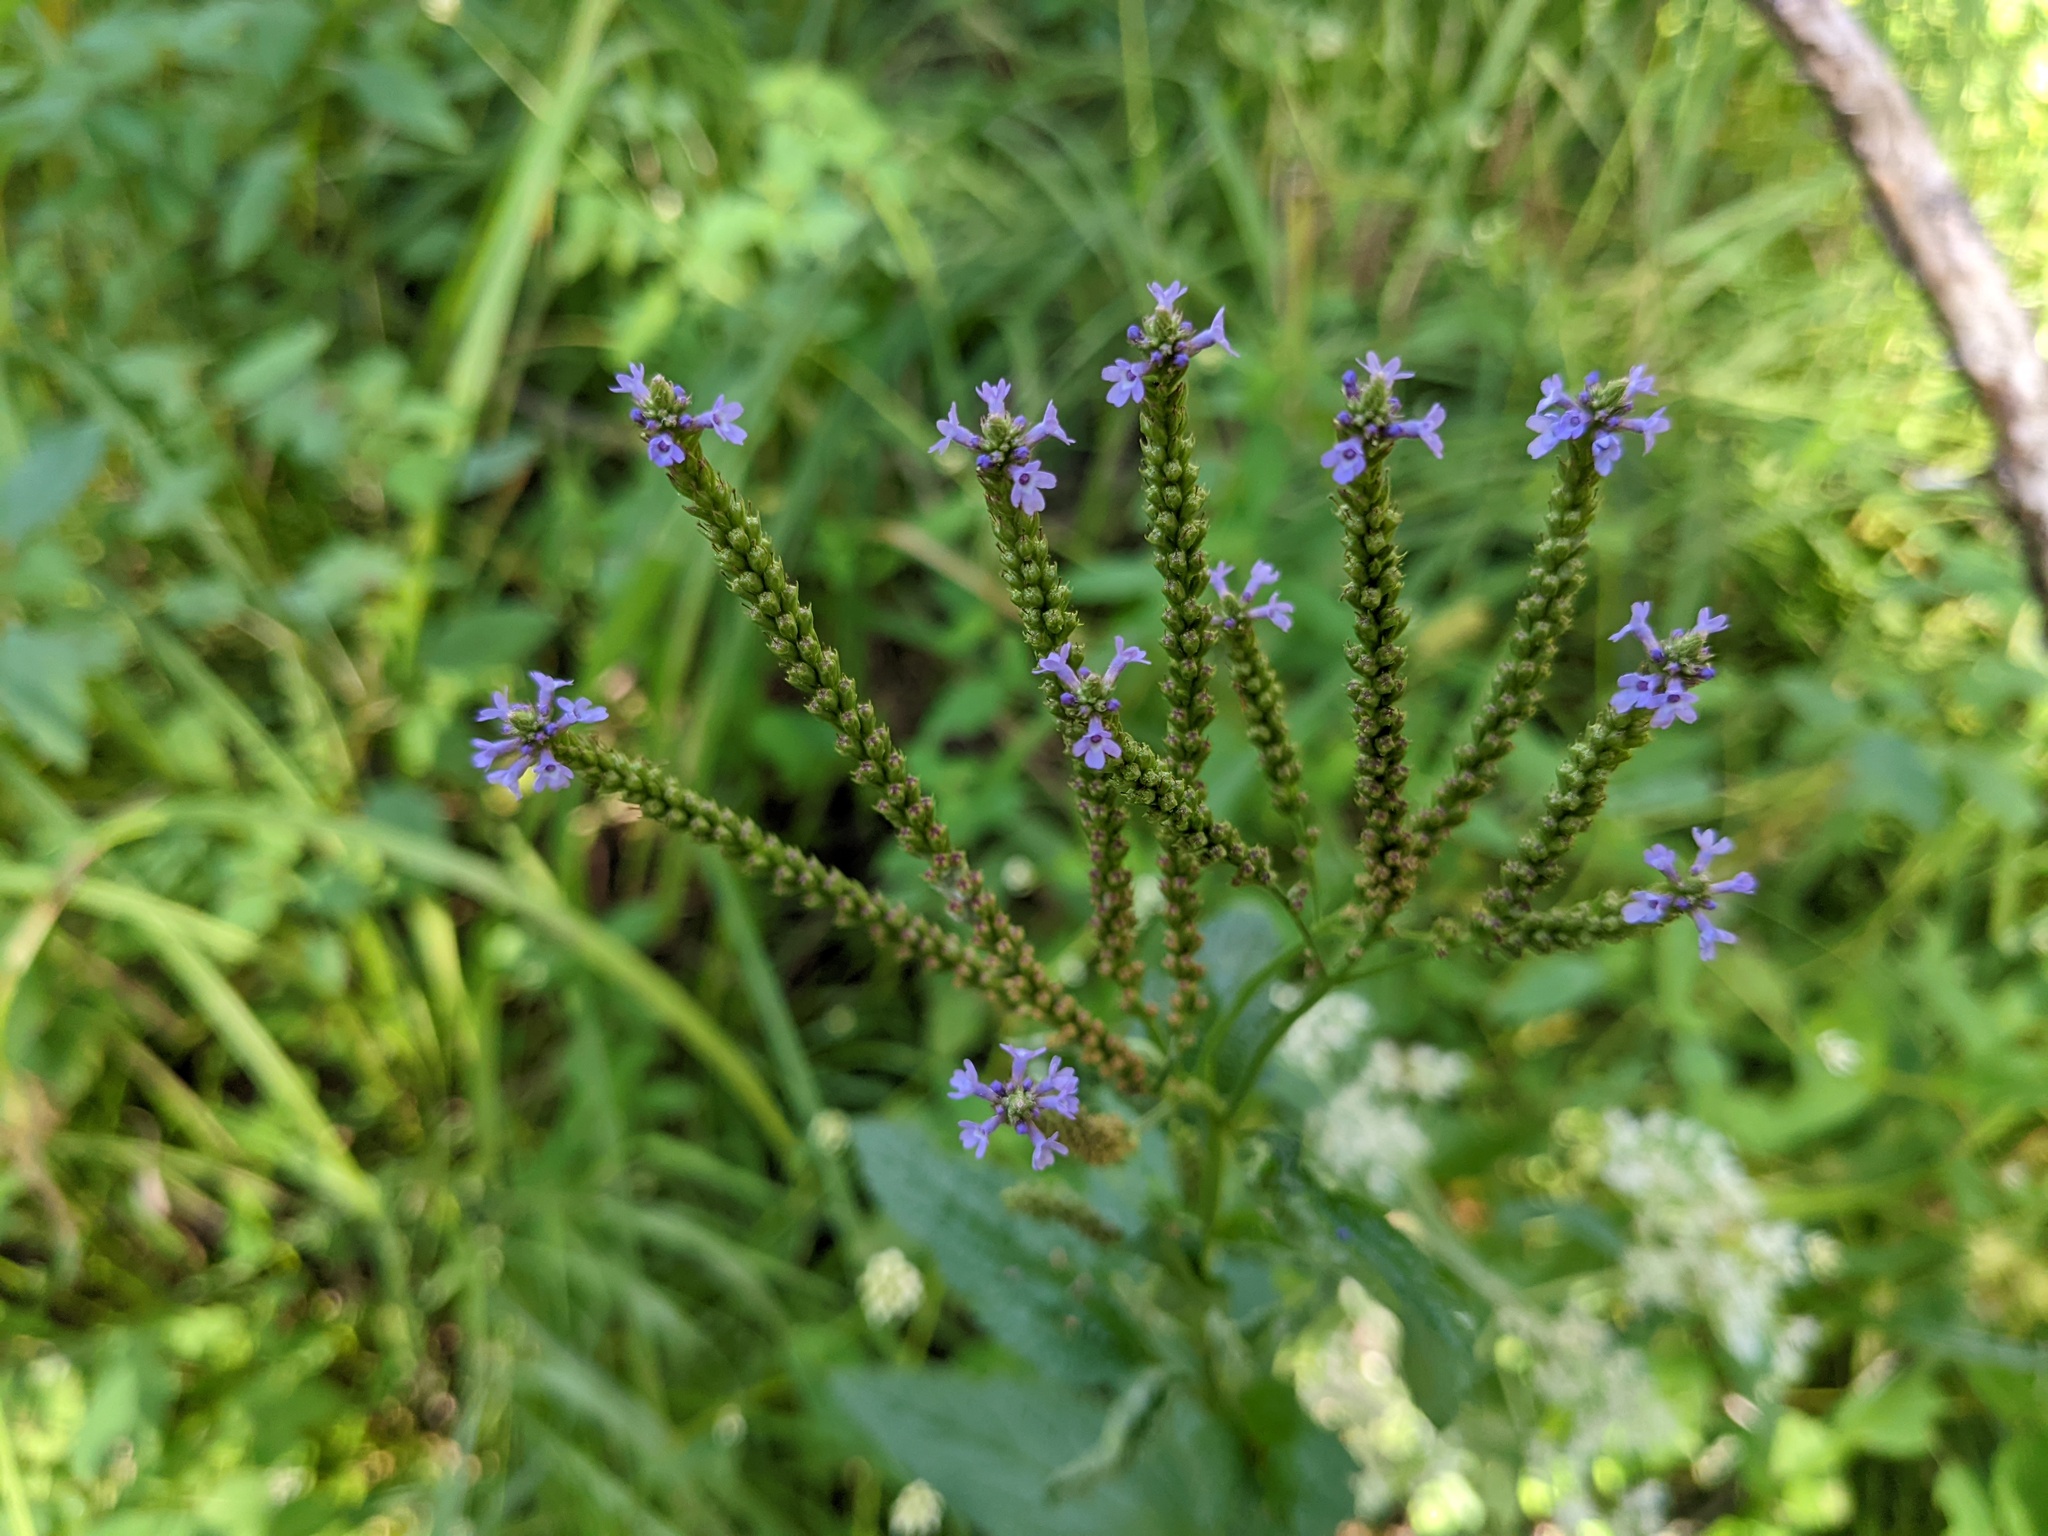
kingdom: Plantae
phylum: Tracheophyta
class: Magnoliopsida
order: Lamiales
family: Verbenaceae
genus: Verbena
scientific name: Verbena hastata
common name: American blue vervain
